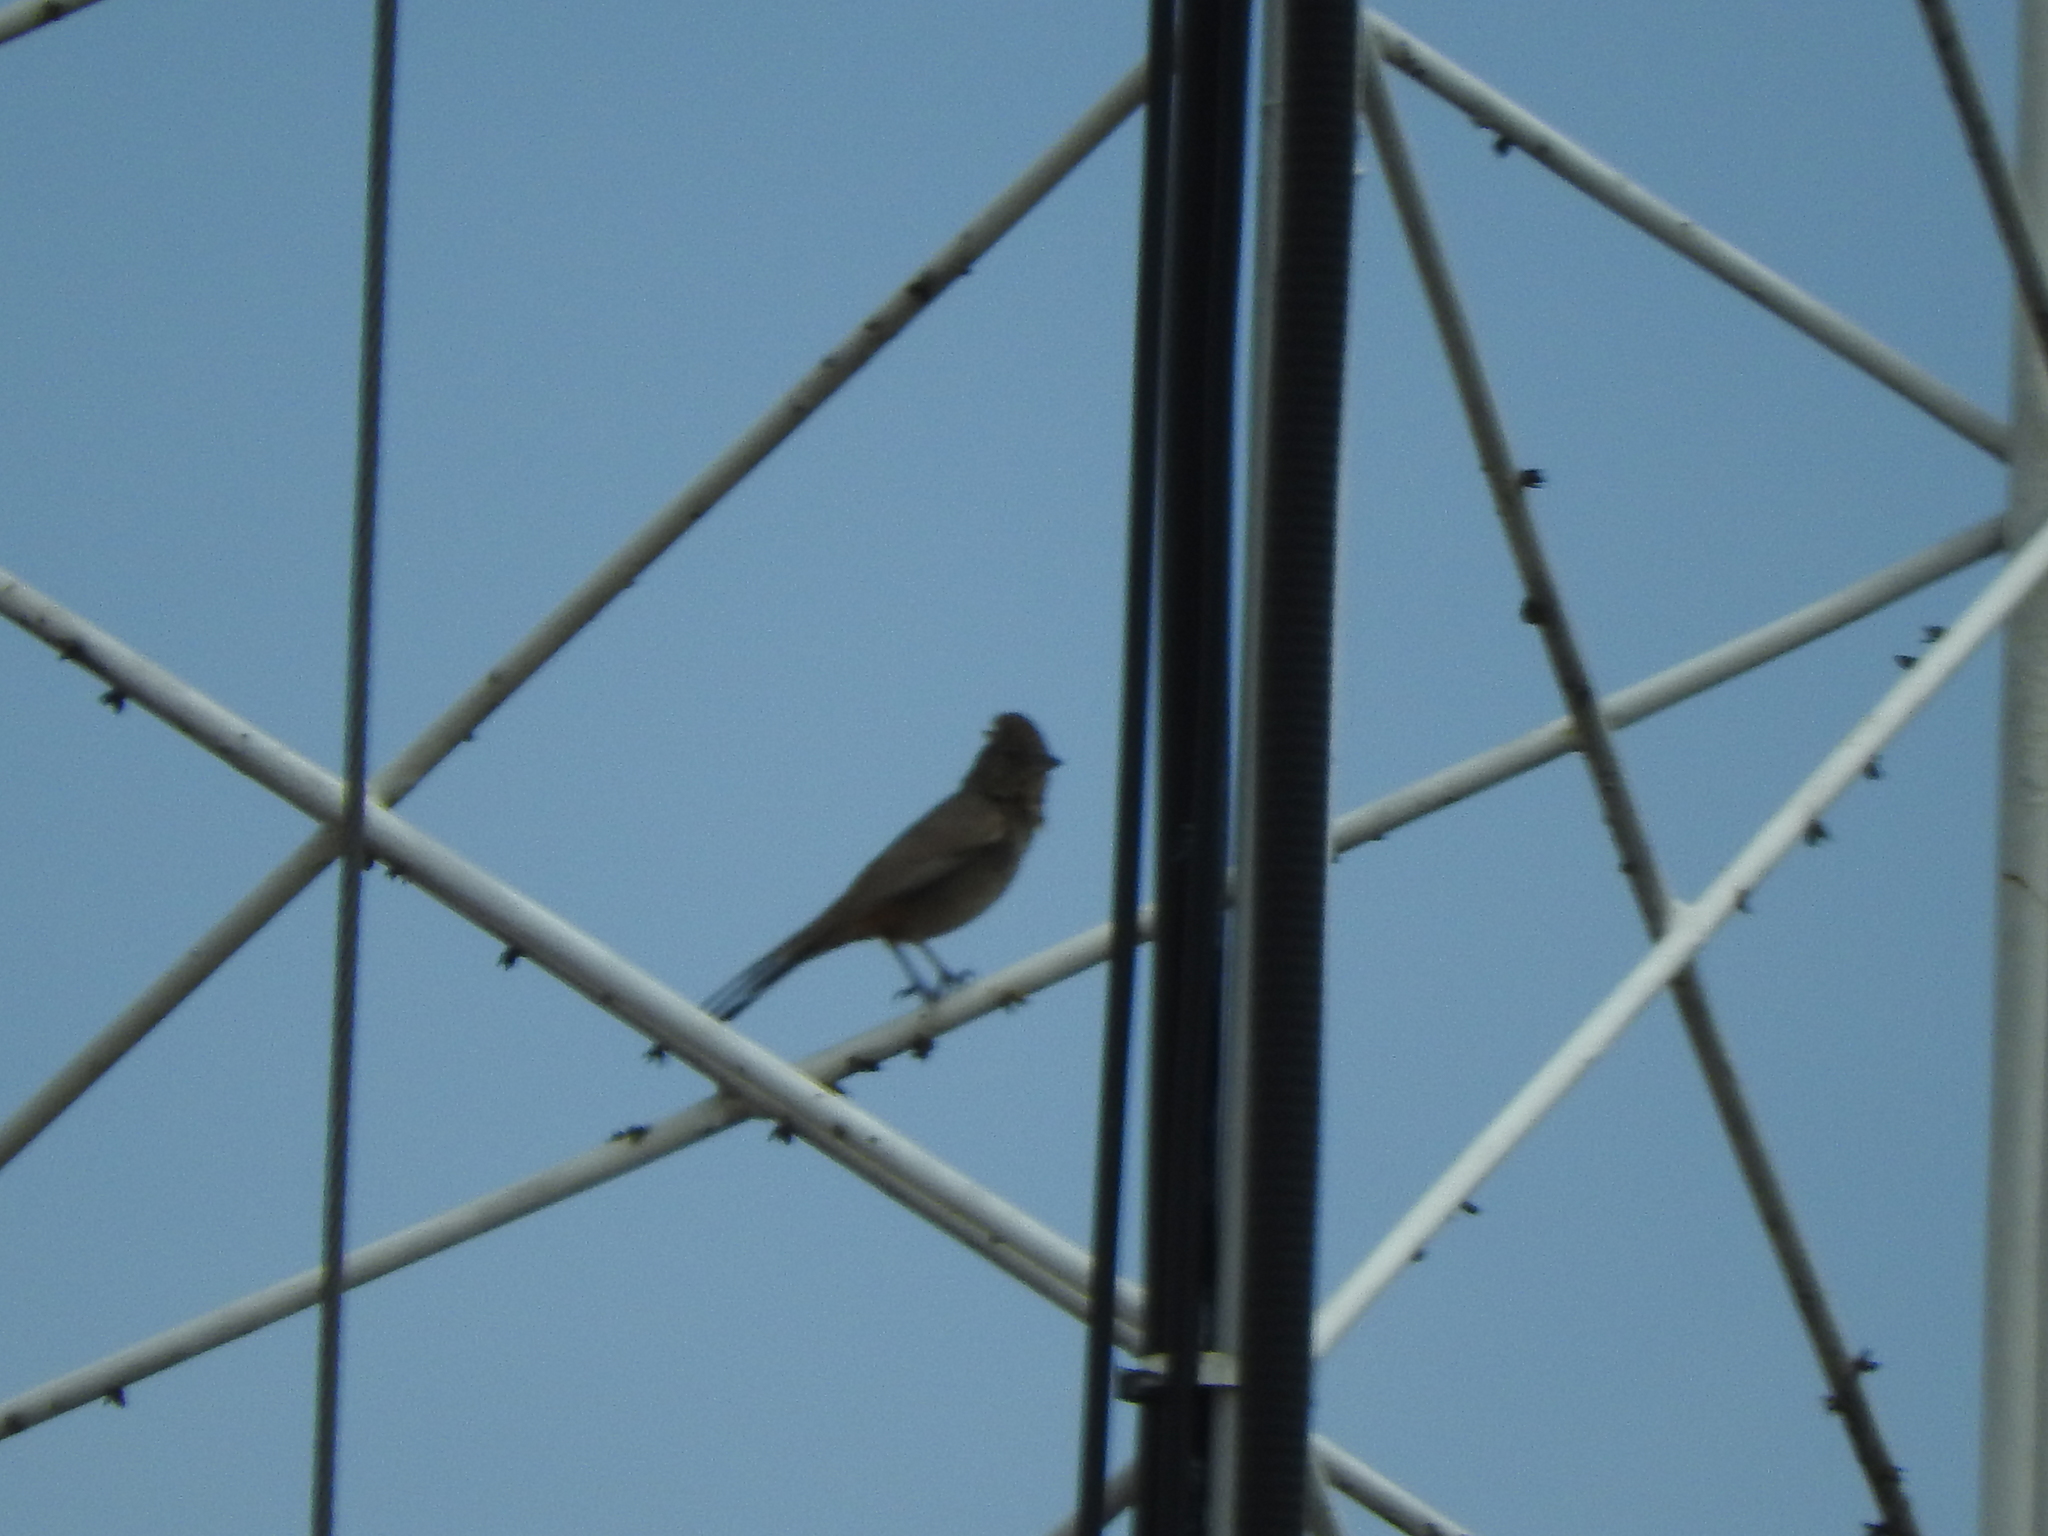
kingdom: Animalia
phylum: Chordata
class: Aves
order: Passeriformes
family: Passerellidae
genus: Melozone
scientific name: Melozone fusca
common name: Canyon towhee
